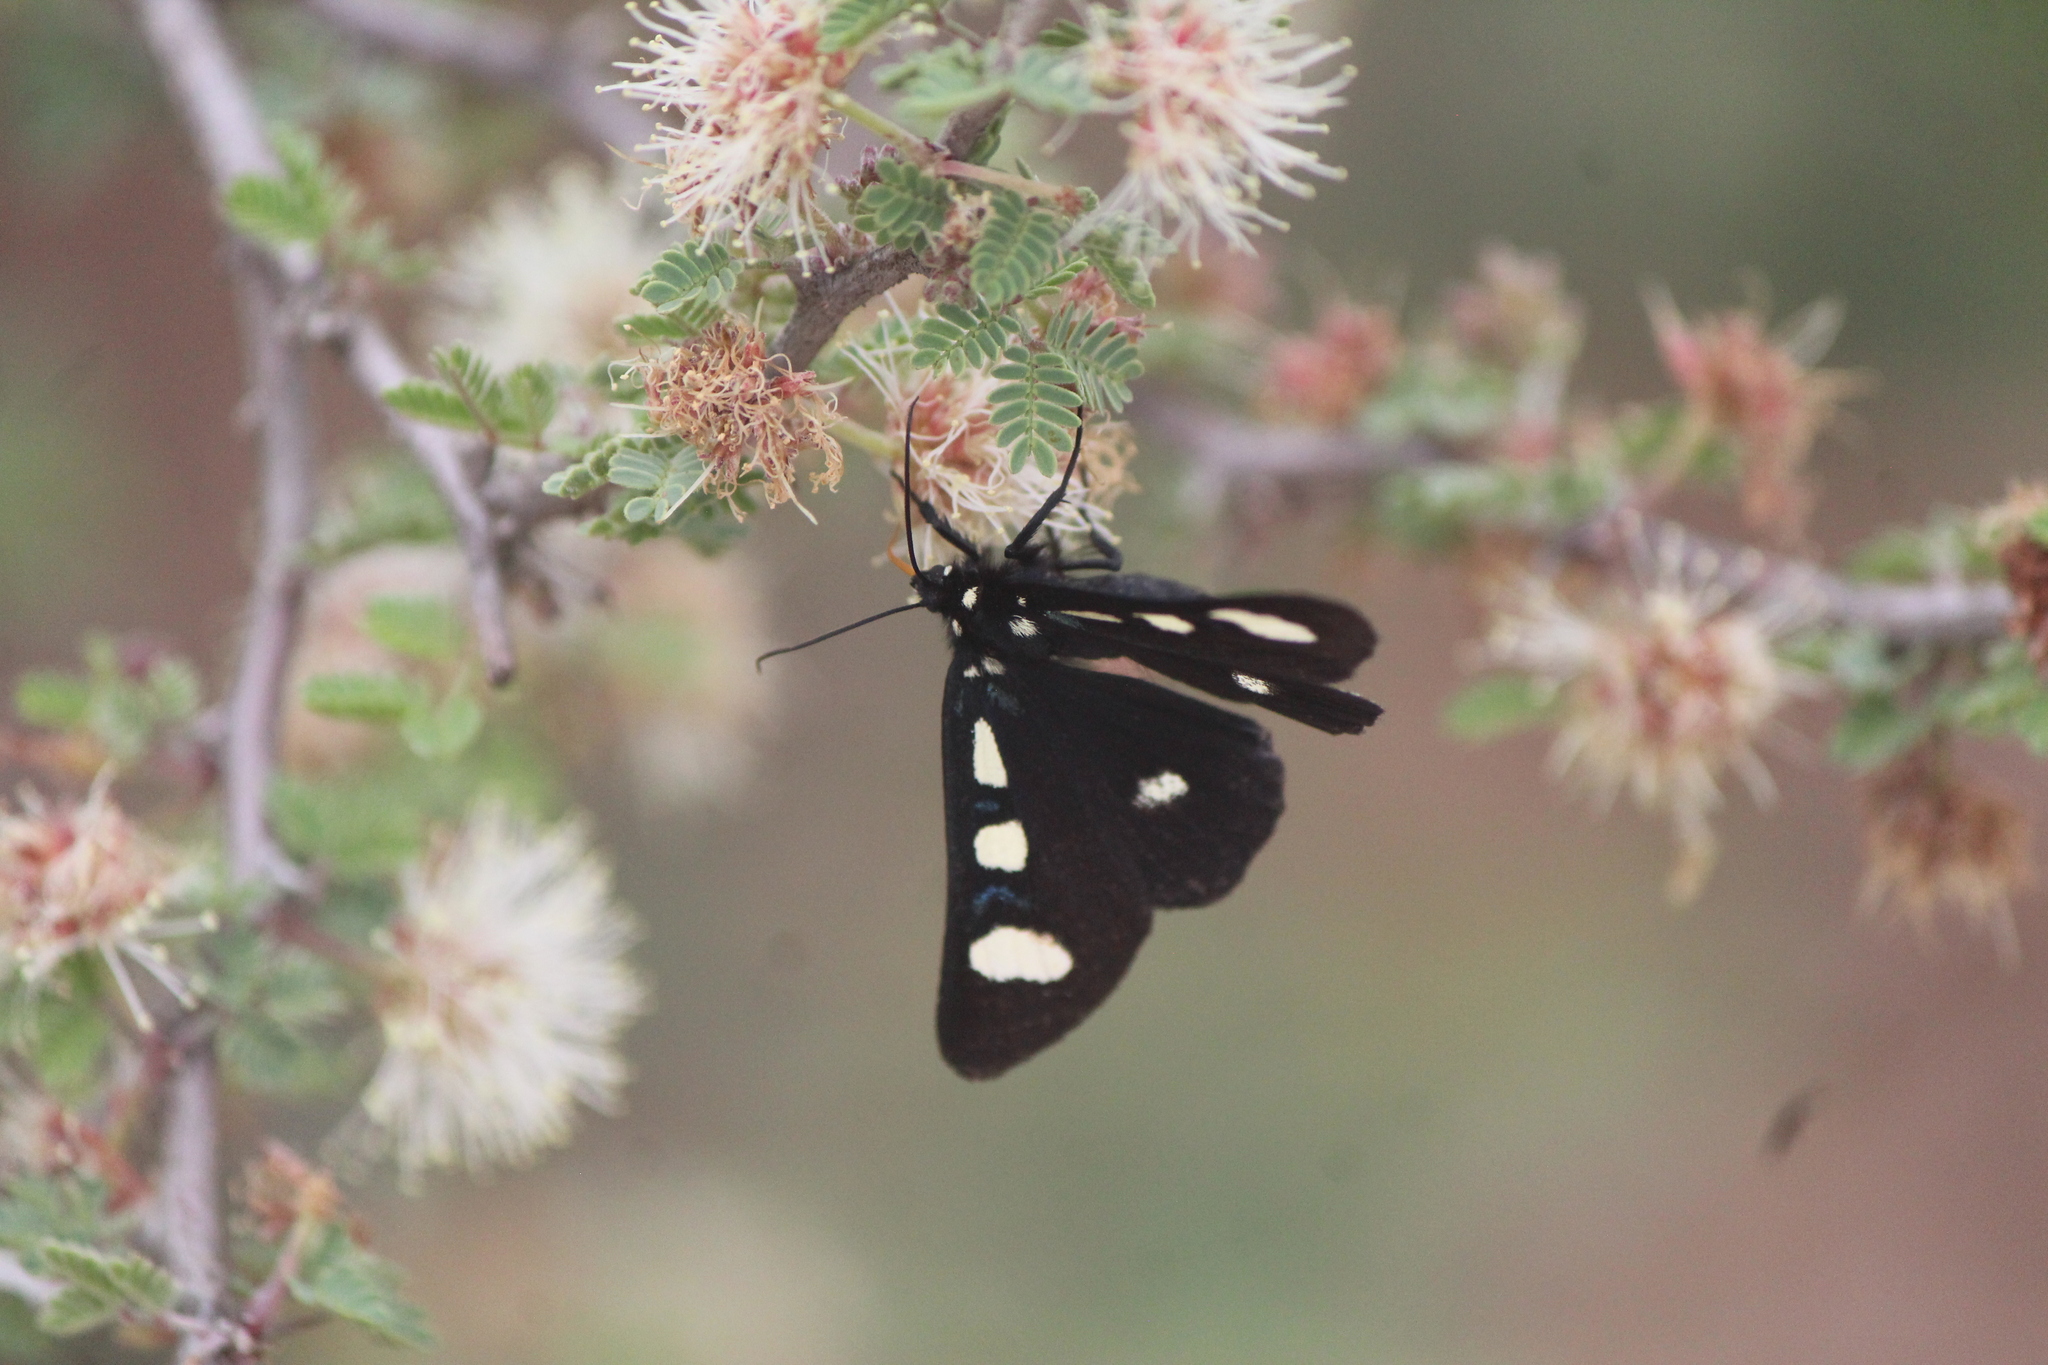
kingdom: Animalia
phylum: Arthropoda
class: Insecta
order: Lepidoptera
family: Noctuidae
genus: Alypiodes
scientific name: Alypiodes bimaculata
